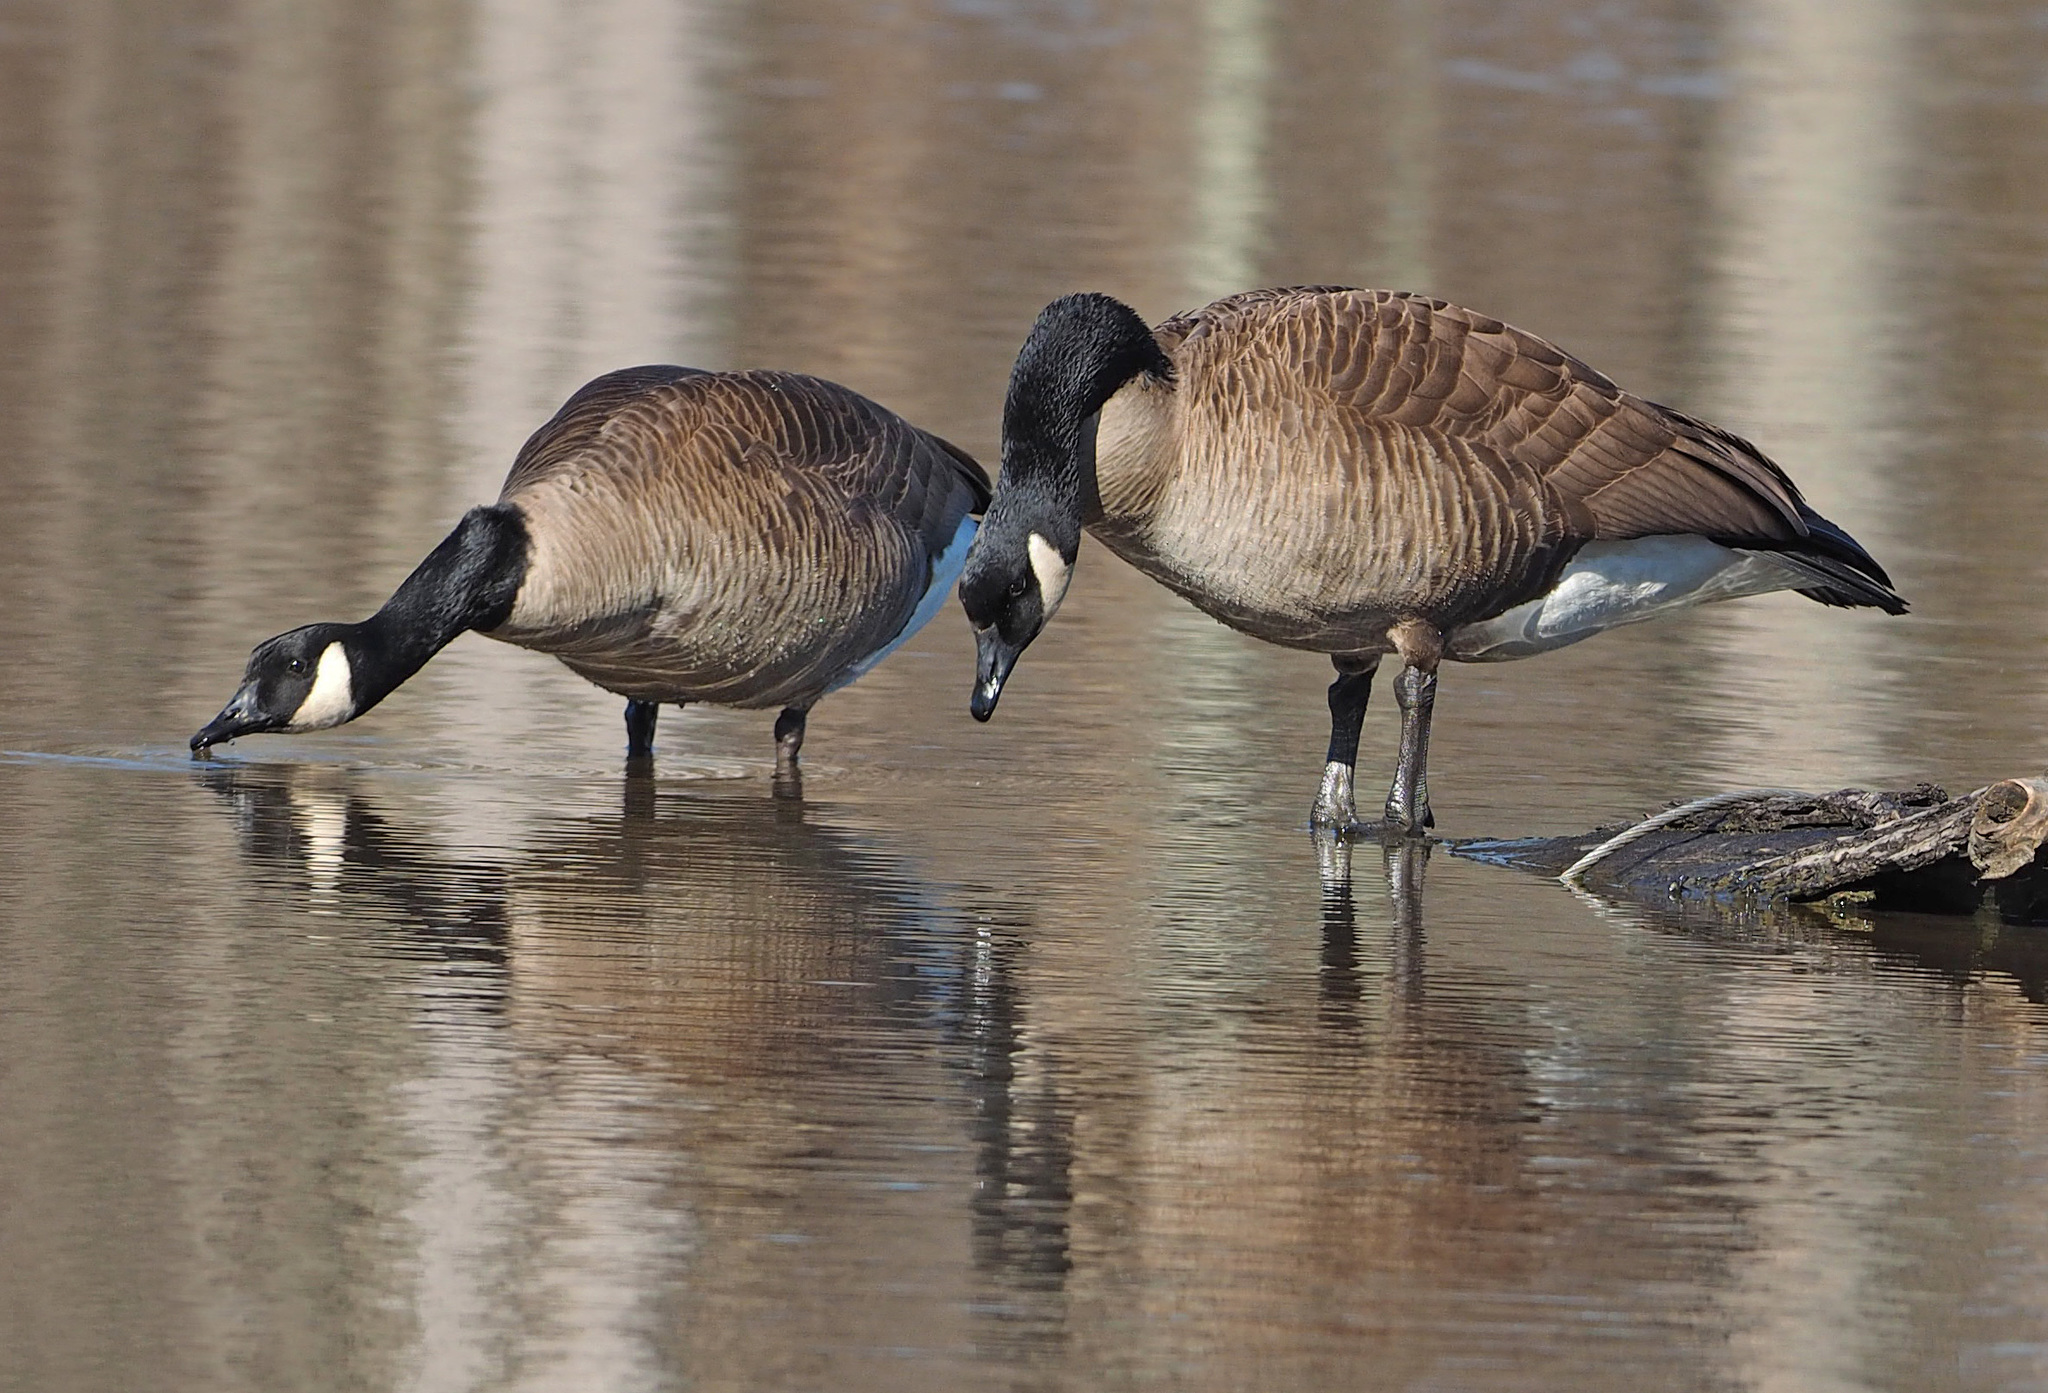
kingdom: Animalia
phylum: Chordata
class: Aves
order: Anseriformes
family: Anatidae
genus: Branta
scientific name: Branta canadensis
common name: Canada goose
